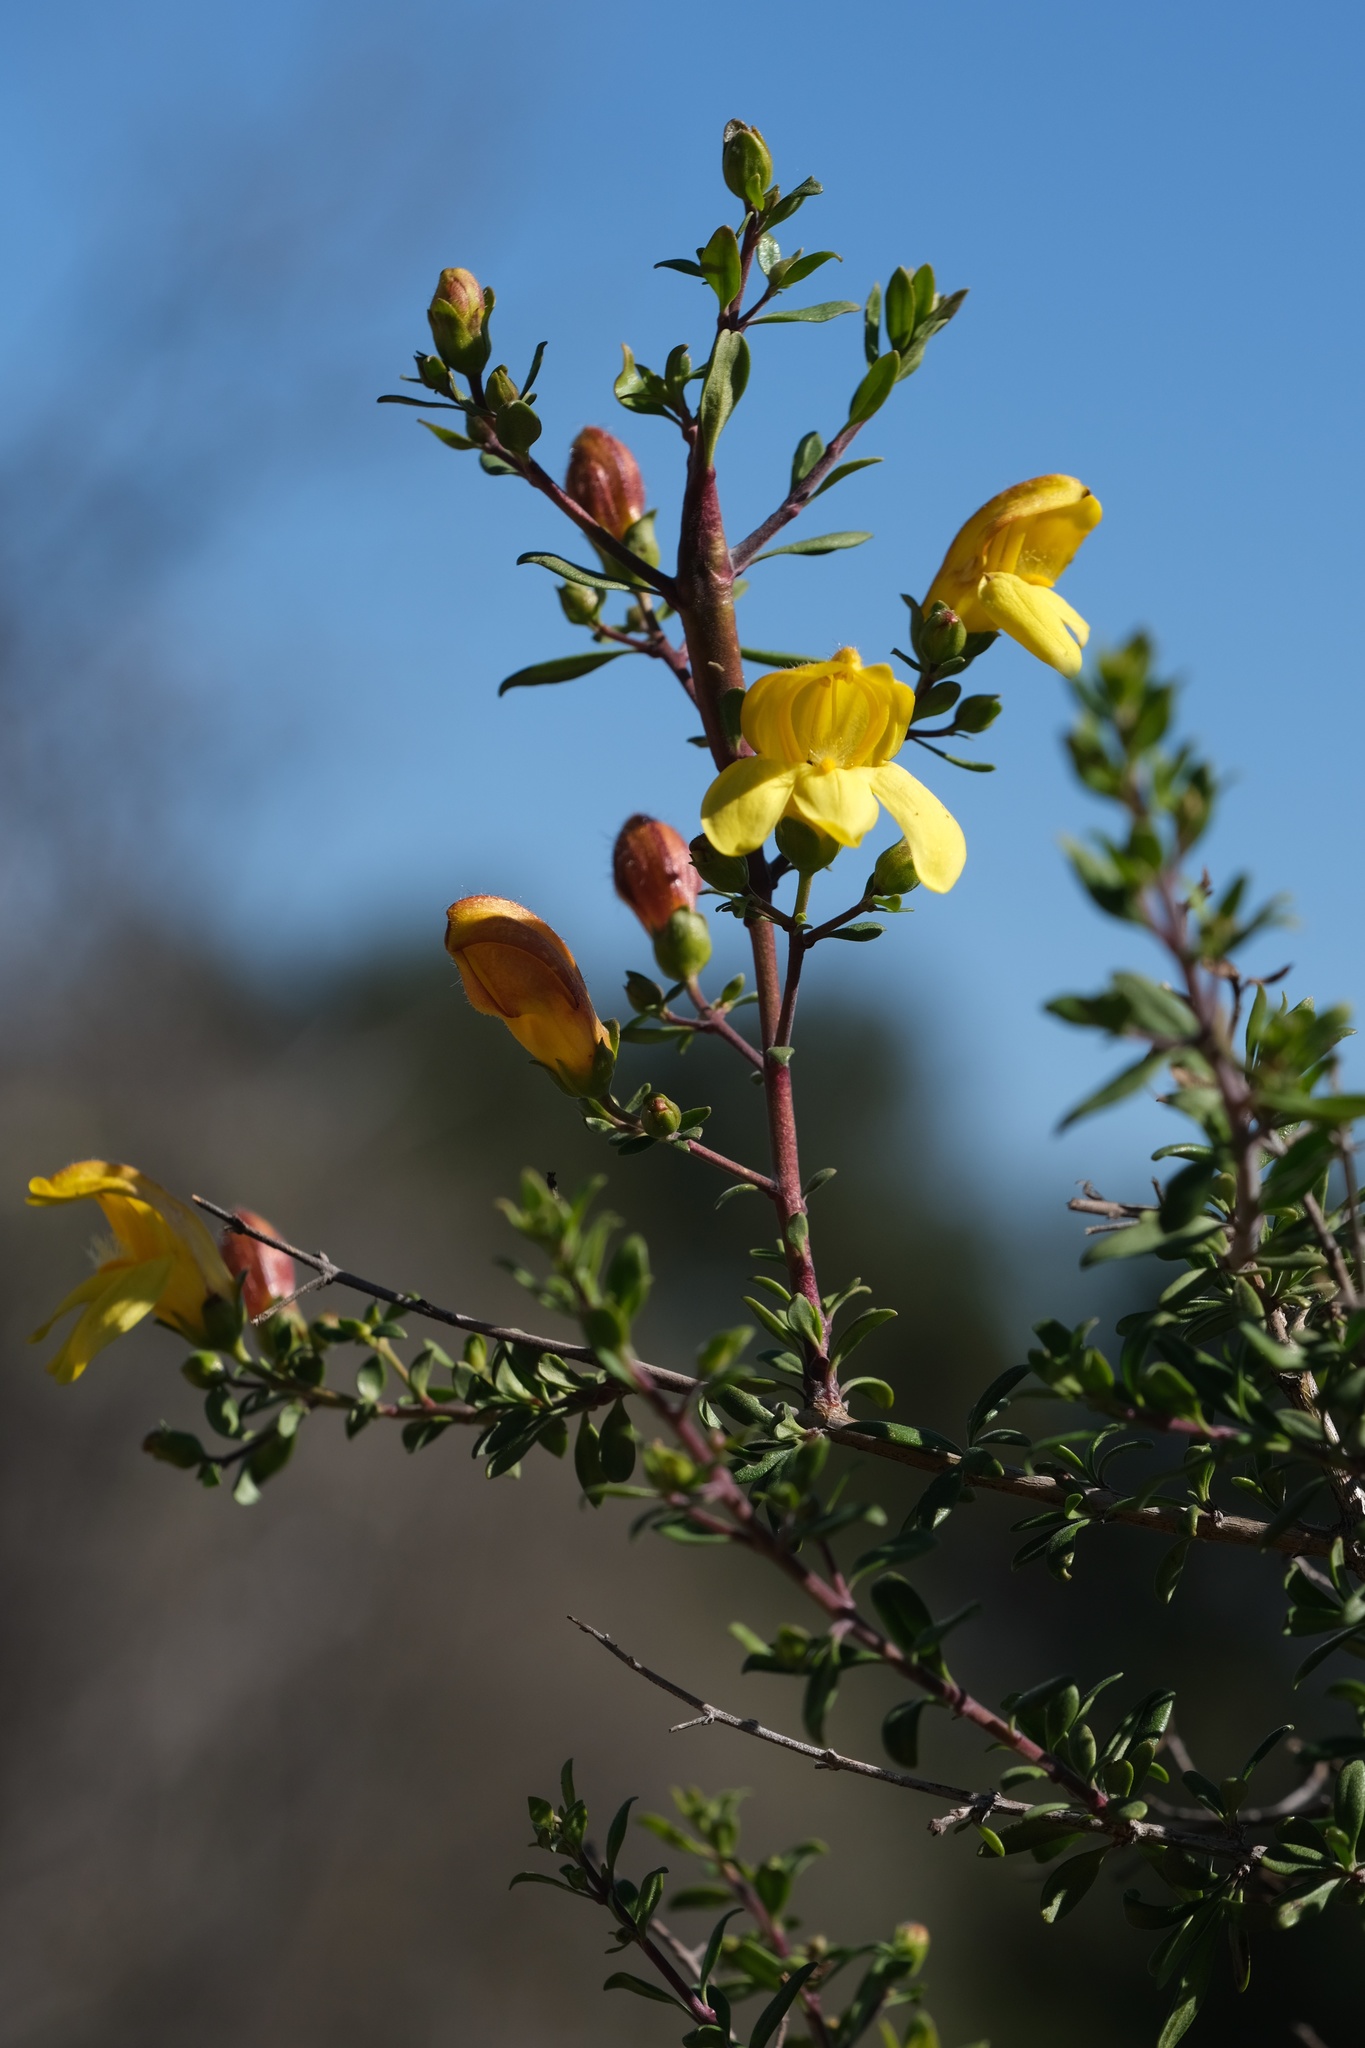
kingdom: Plantae
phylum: Tracheophyta
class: Magnoliopsida
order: Lamiales
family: Plantaginaceae
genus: Keckiella
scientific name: Keckiella antirrhinoides
